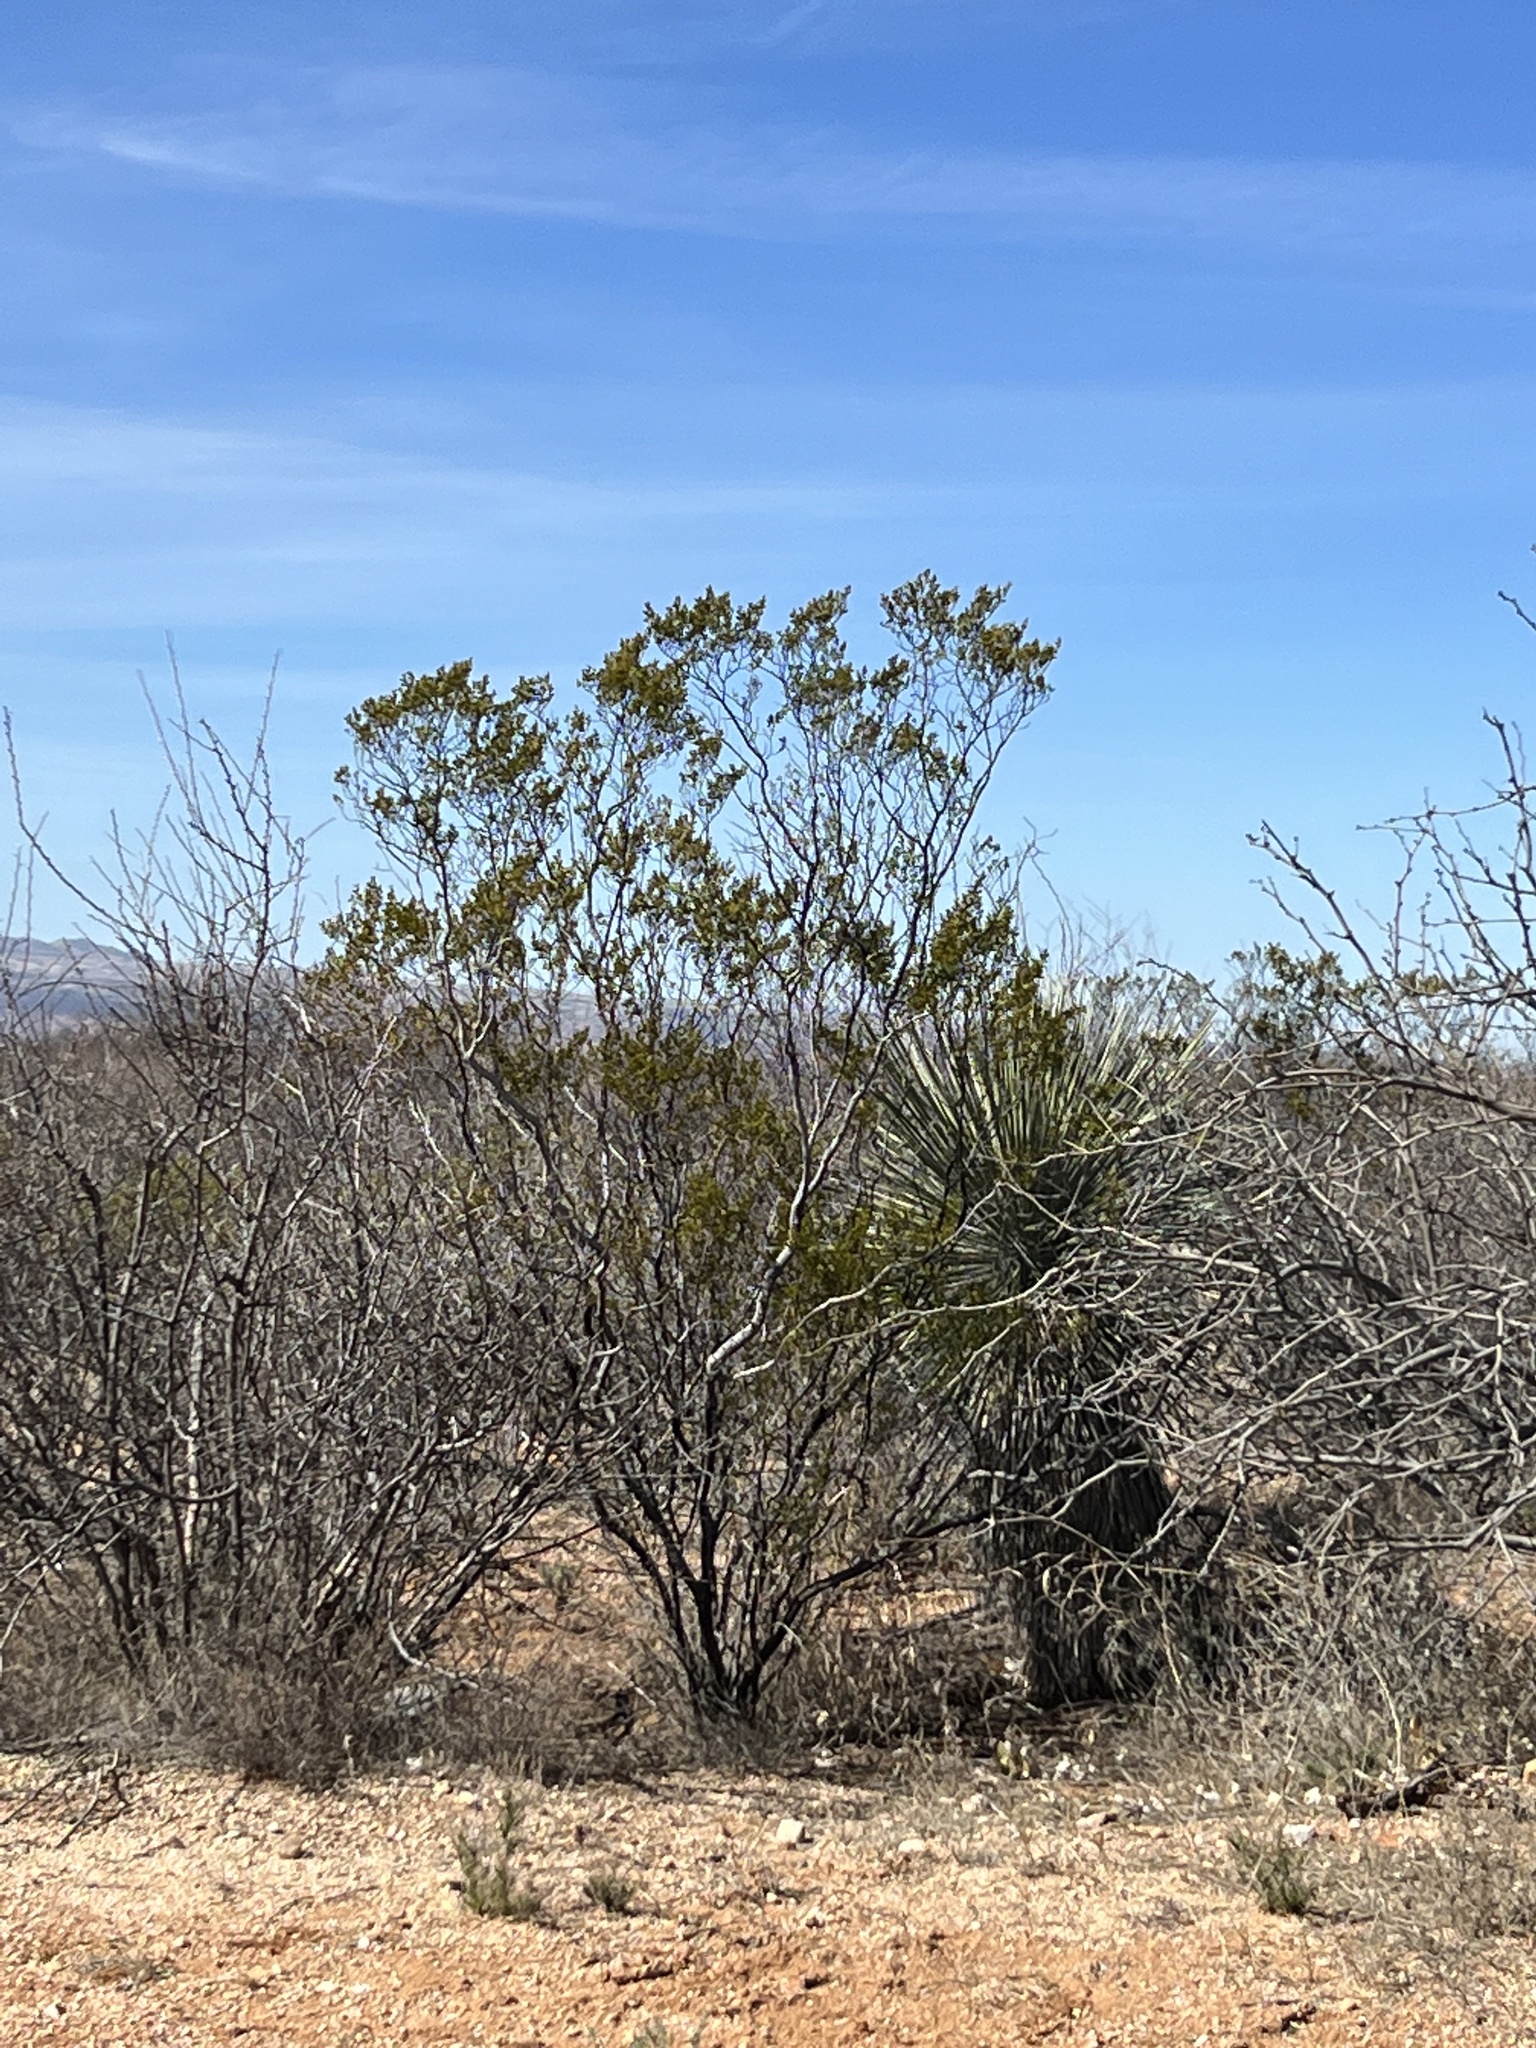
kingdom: Plantae
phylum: Tracheophyta
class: Magnoliopsida
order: Zygophyllales
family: Zygophyllaceae
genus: Larrea
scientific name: Larrea tridentata
